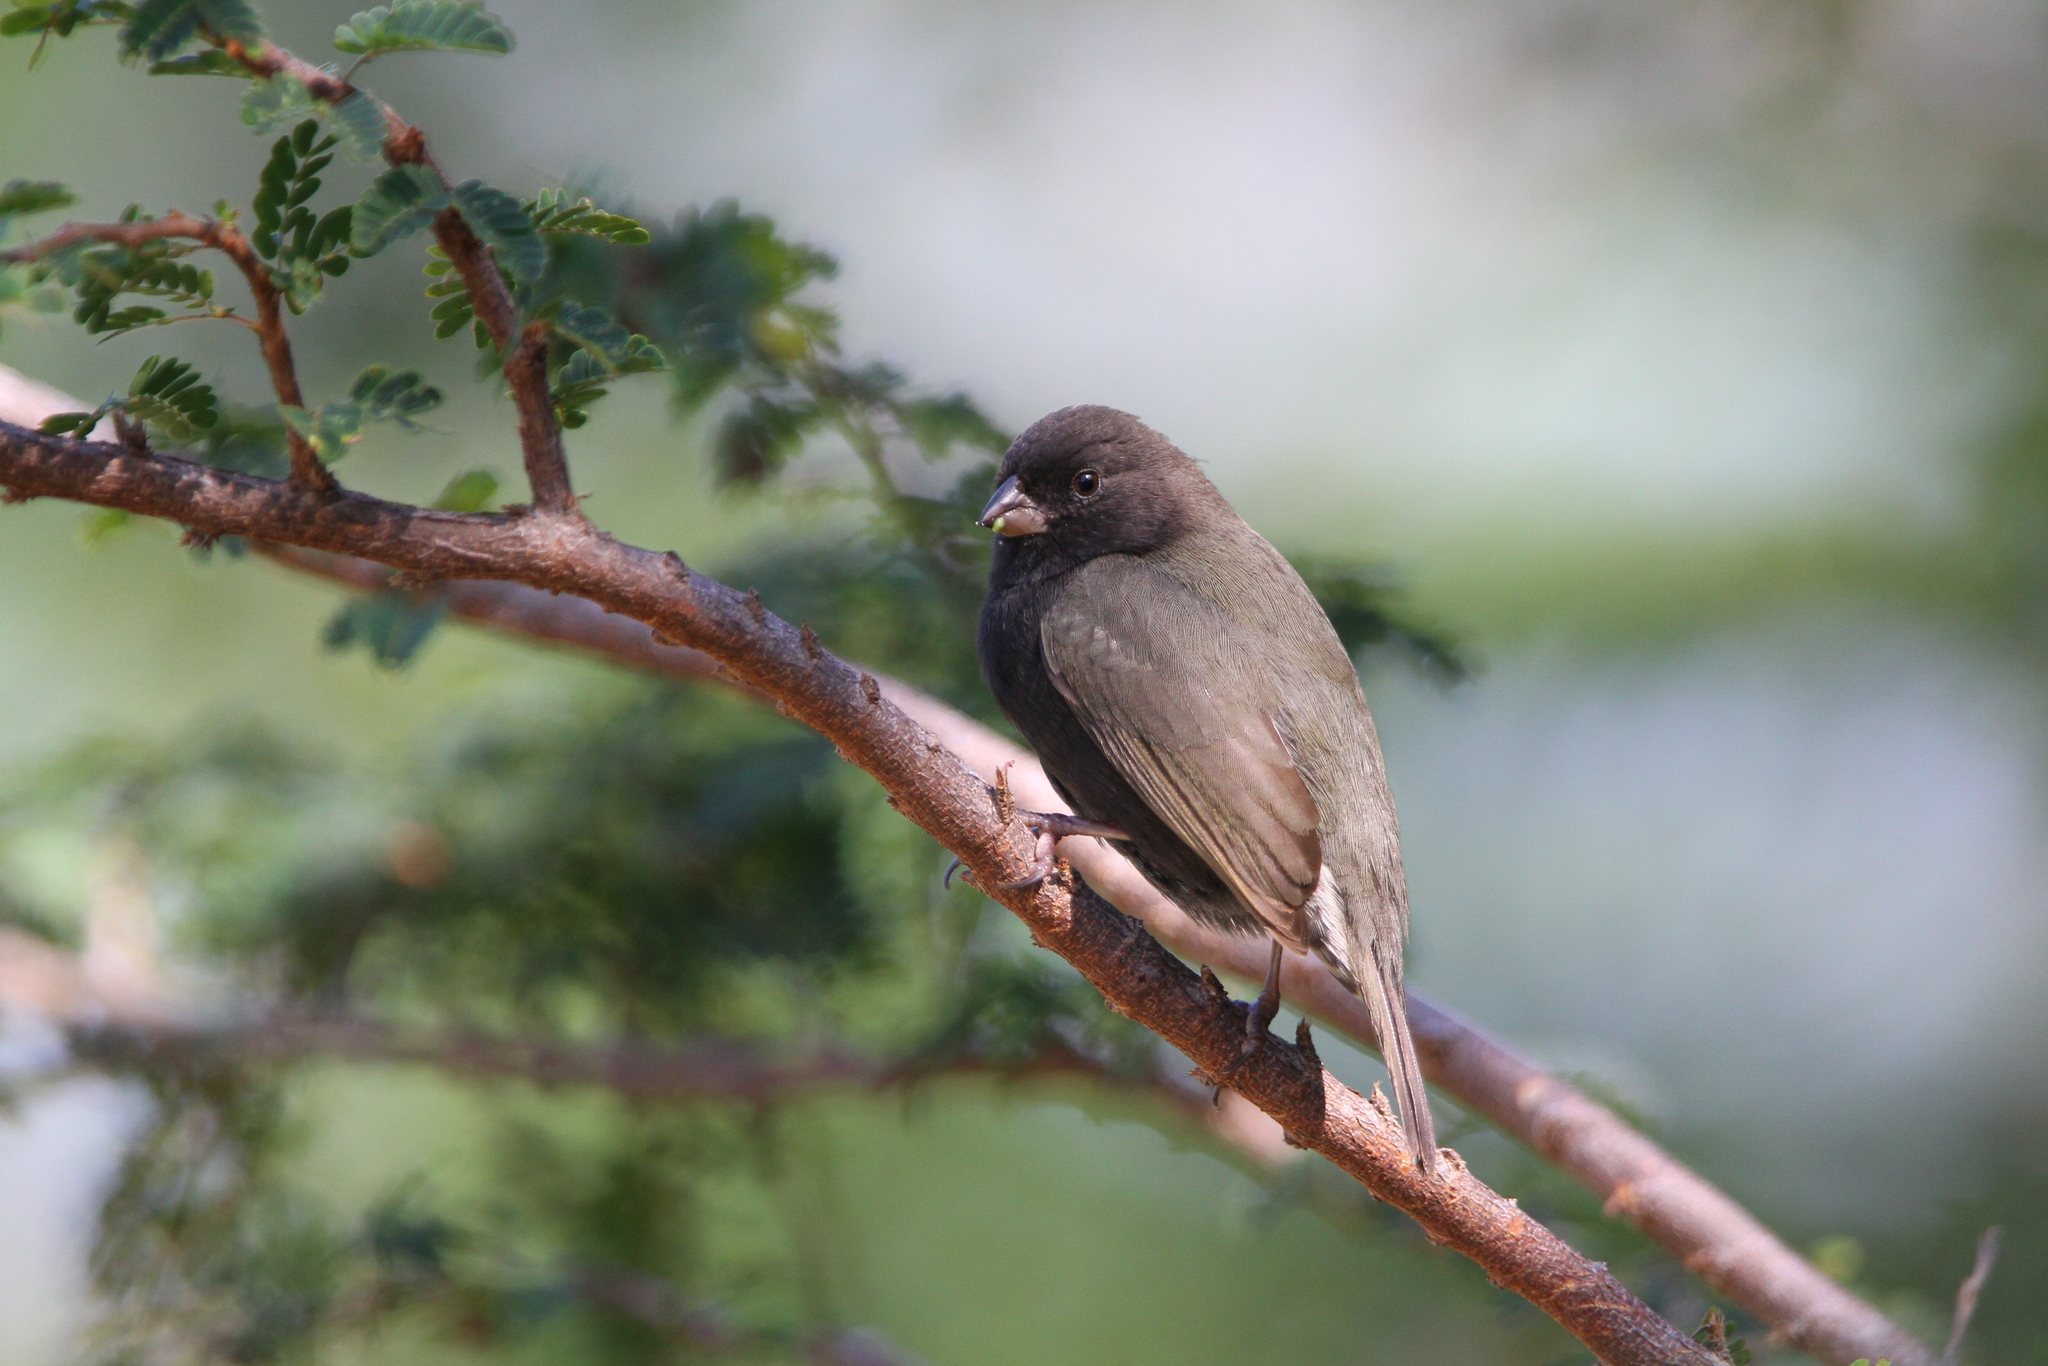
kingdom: Animalia
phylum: Chordata
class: Aves
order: Passeriformes
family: Thraupidae
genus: Melanospiza
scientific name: Melanospiza bicolor
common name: Black-faced grassquit
